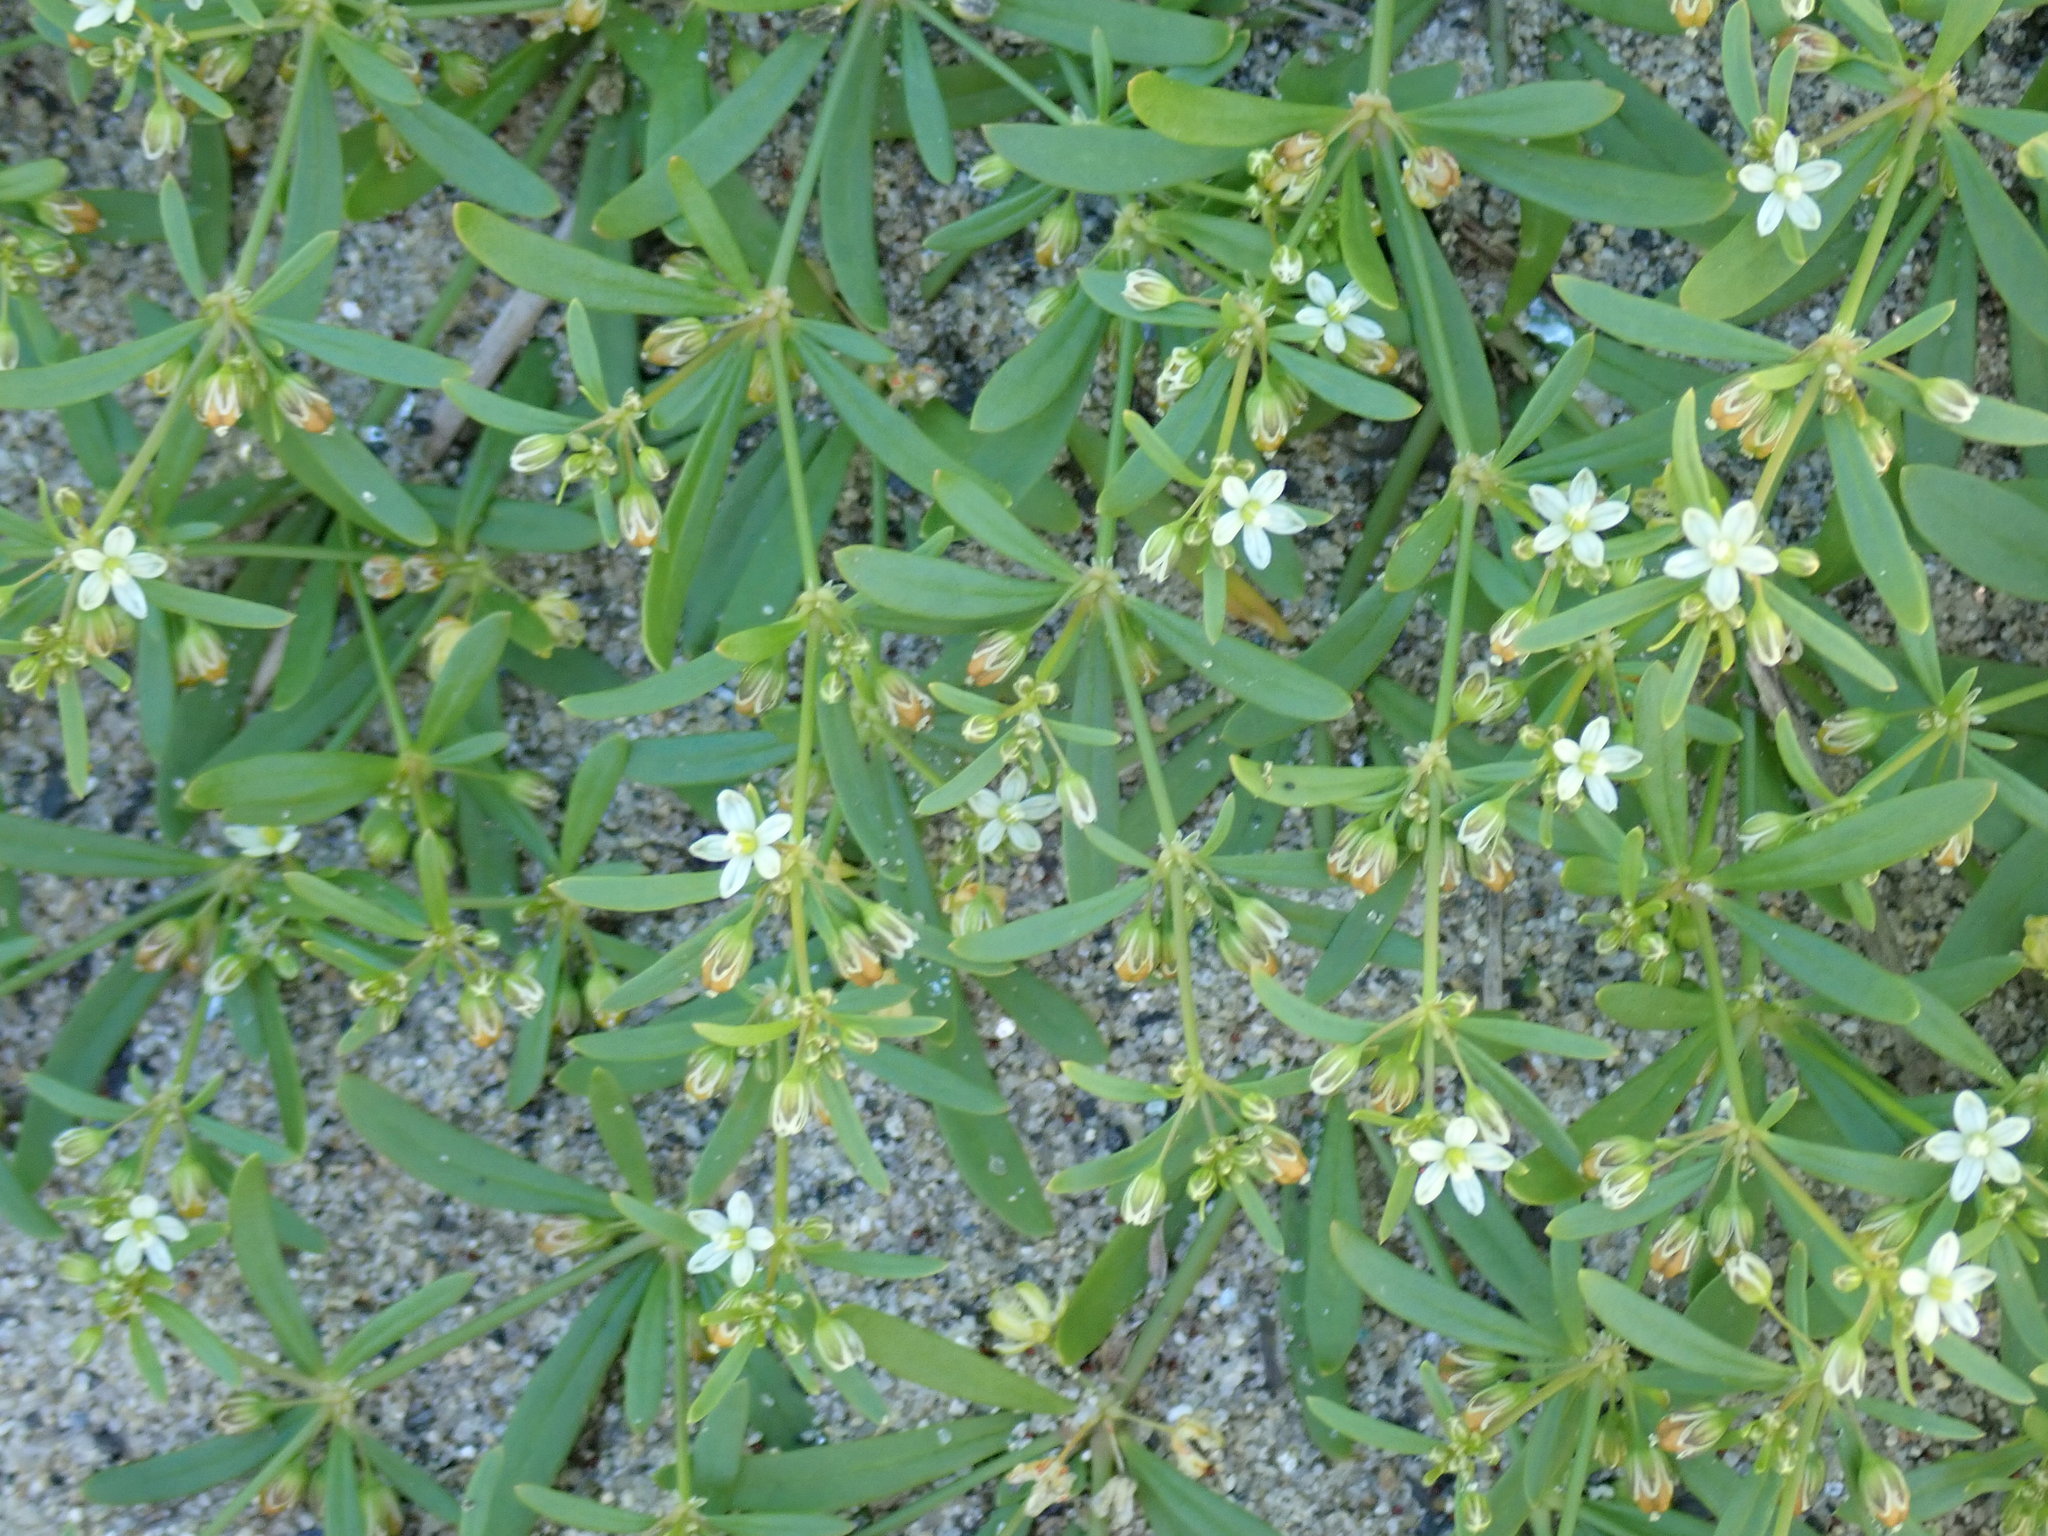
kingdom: Plantae
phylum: Tracheophyta
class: Magnoliopsida
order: Caryophyllales
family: Molluginaceae
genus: Mollugo
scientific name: Mollugo verticillata
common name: Green carpetweed
